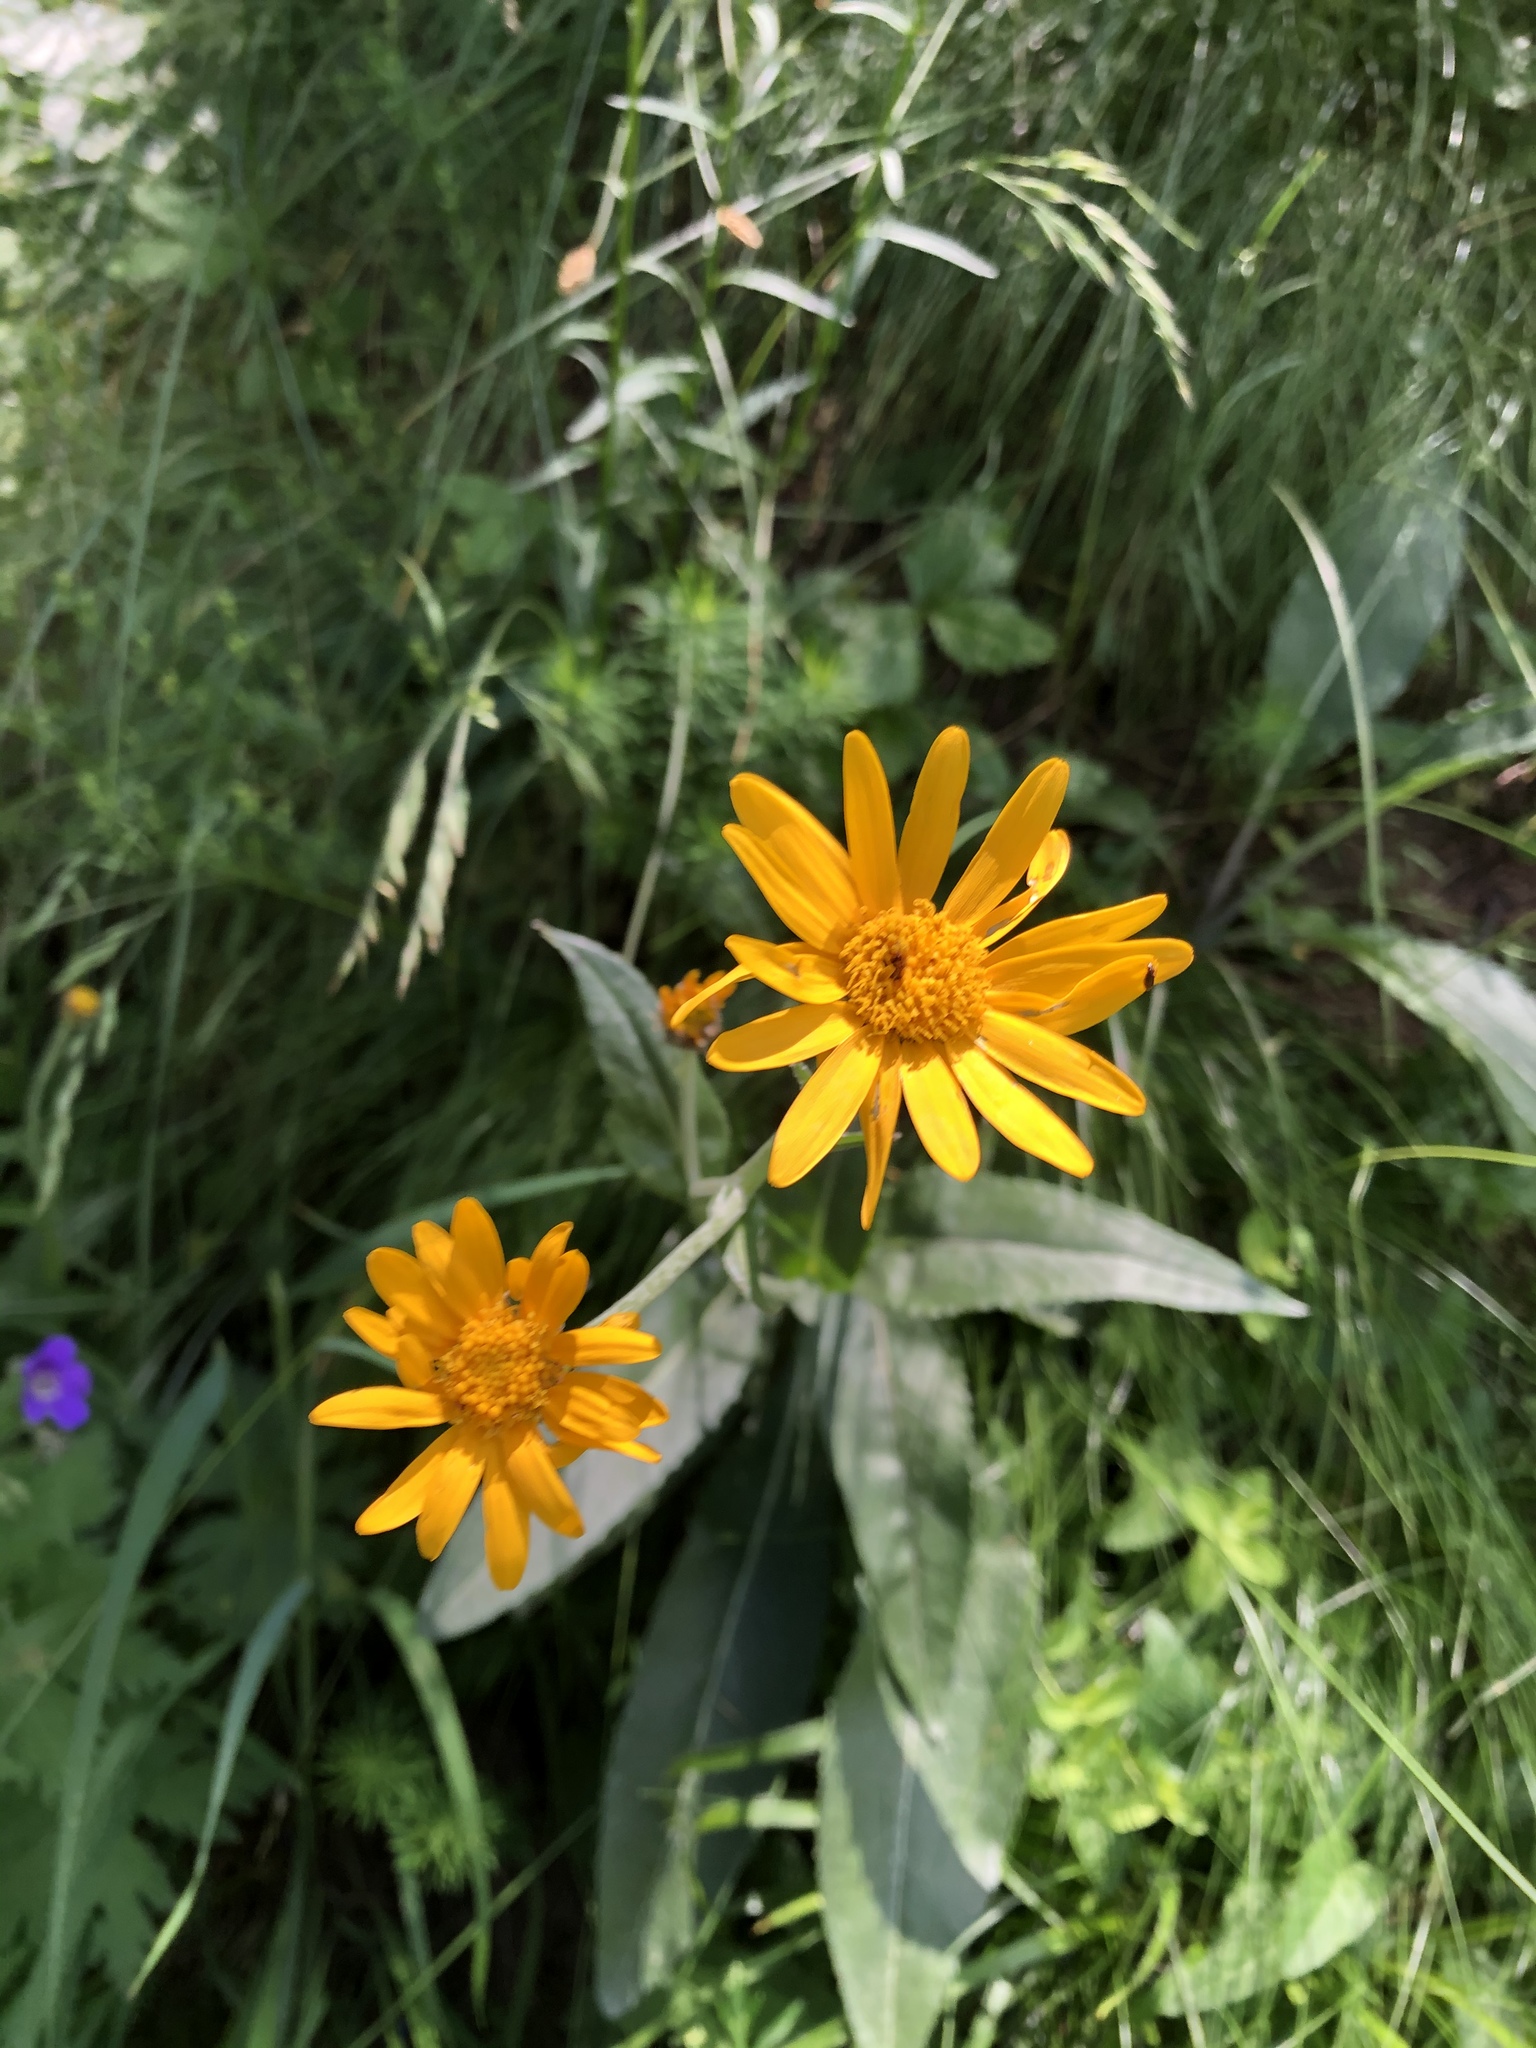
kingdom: Plantae
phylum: Tracheophyta
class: Magnoliopsida
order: Asterales
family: Asteraceae
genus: Senecio
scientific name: Senecio doronicum
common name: Chamois ragwort
